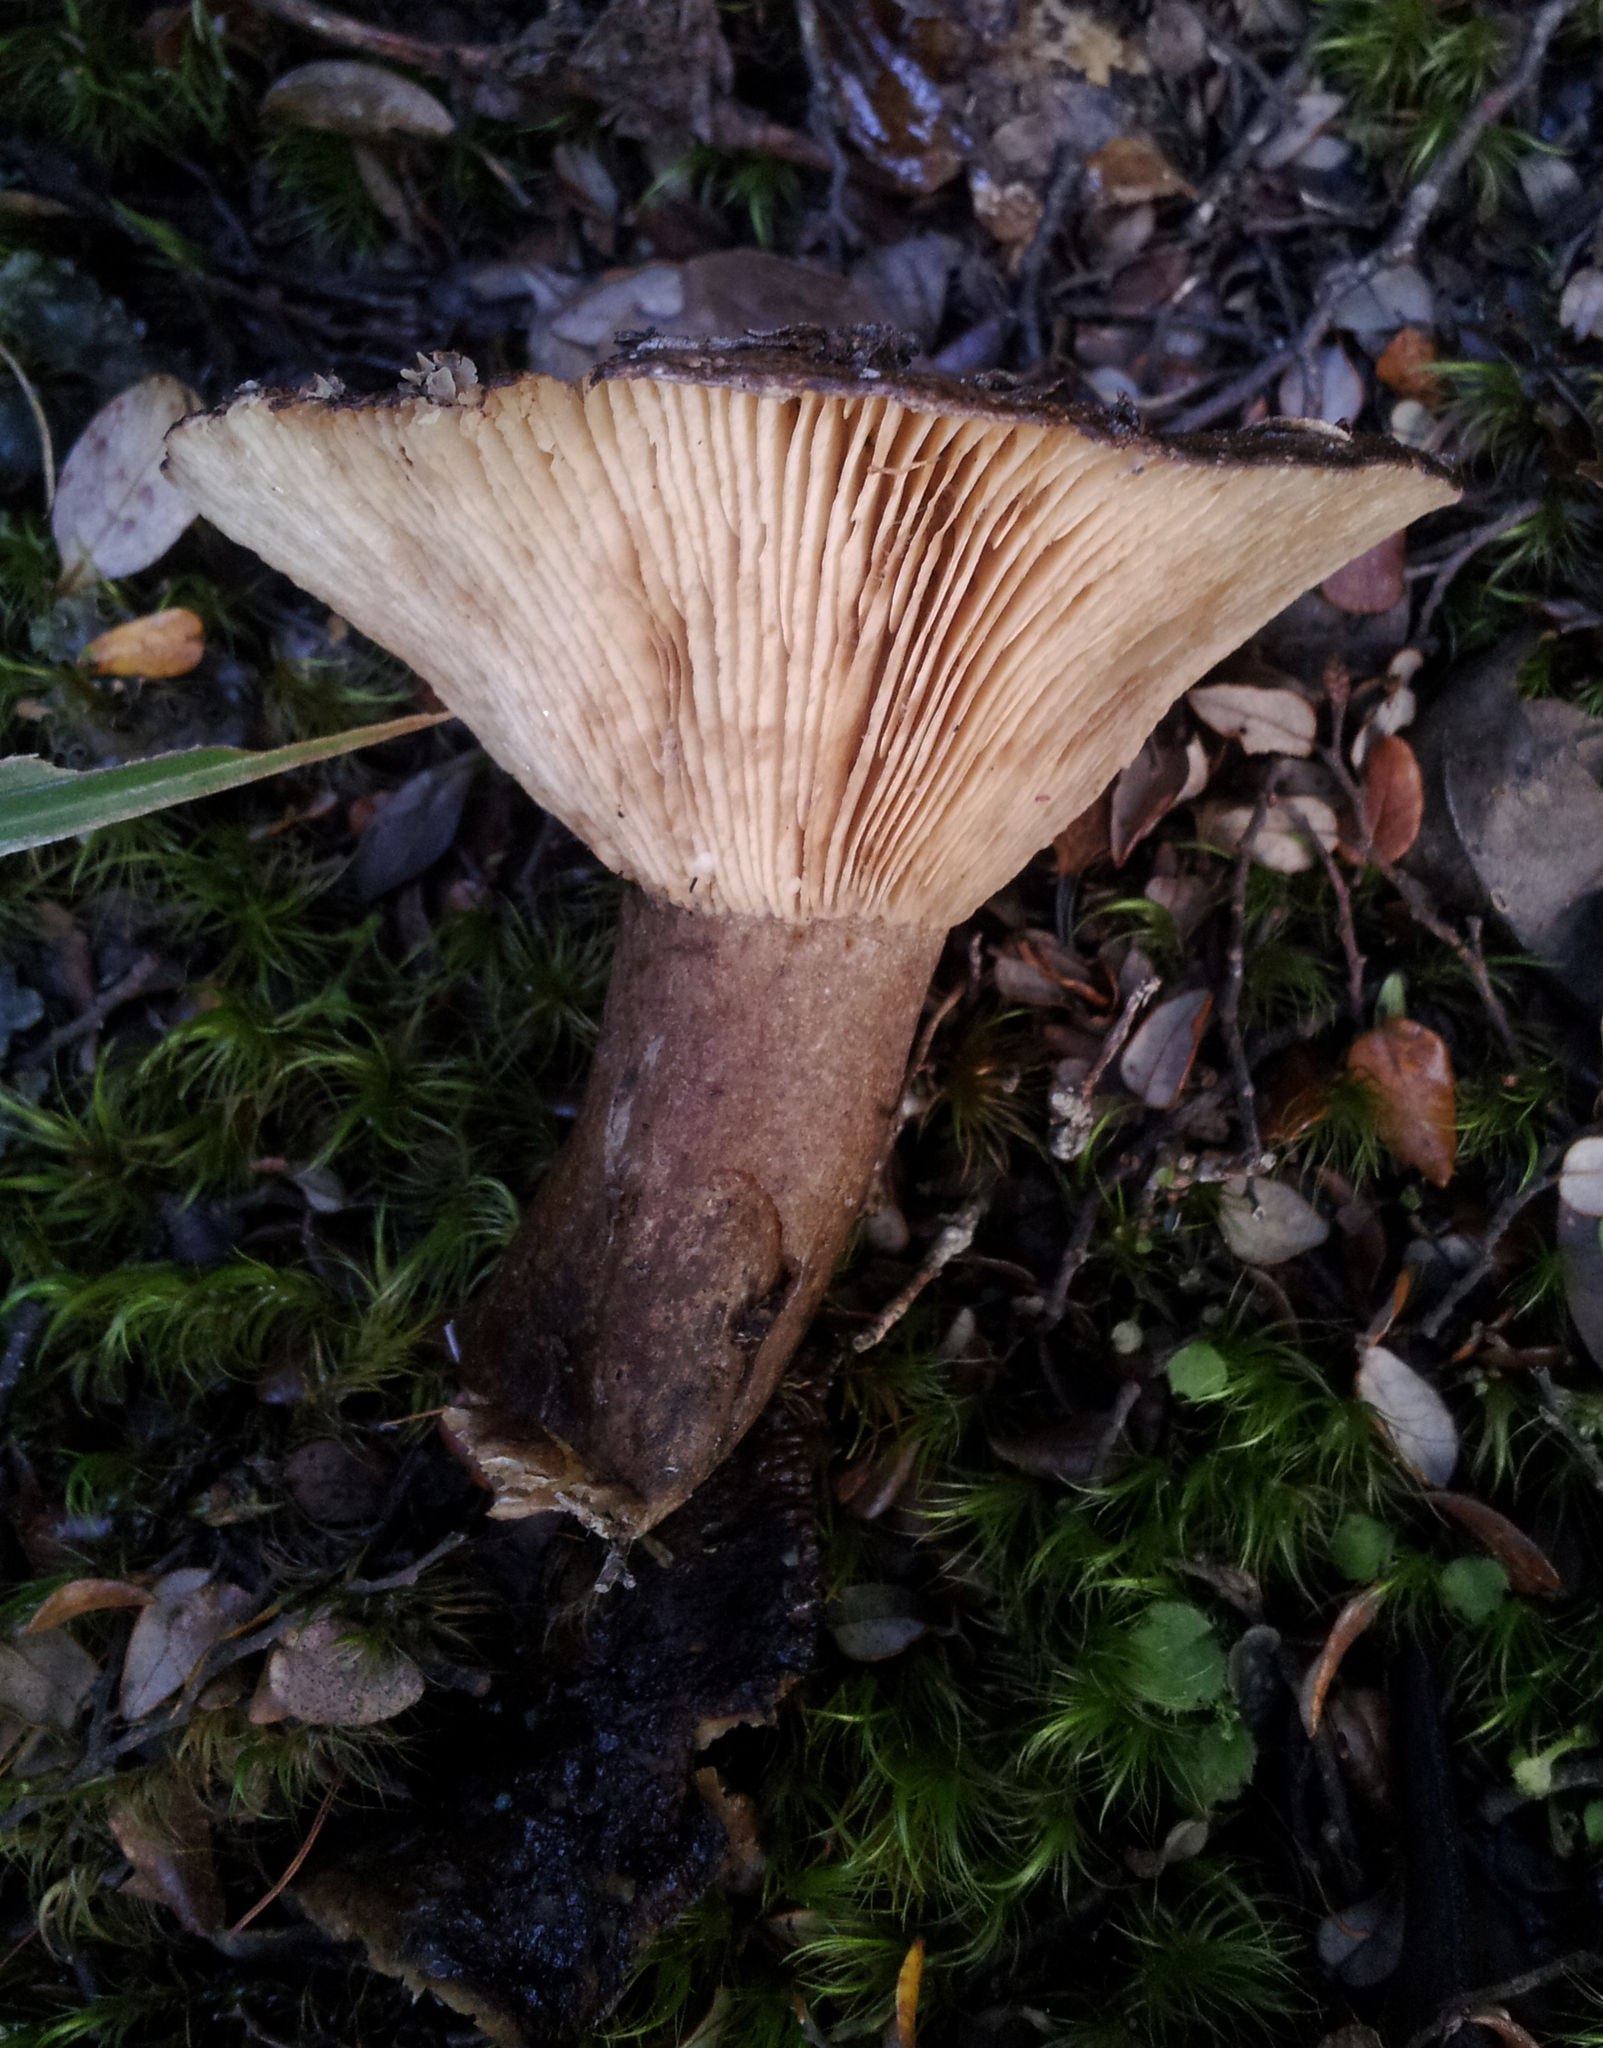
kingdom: Fungi
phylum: Basidiomycota
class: Agaricomycetes
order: Russulales
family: Russulaceae
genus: Lactifluus
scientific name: Lactifluus sepiaceus
